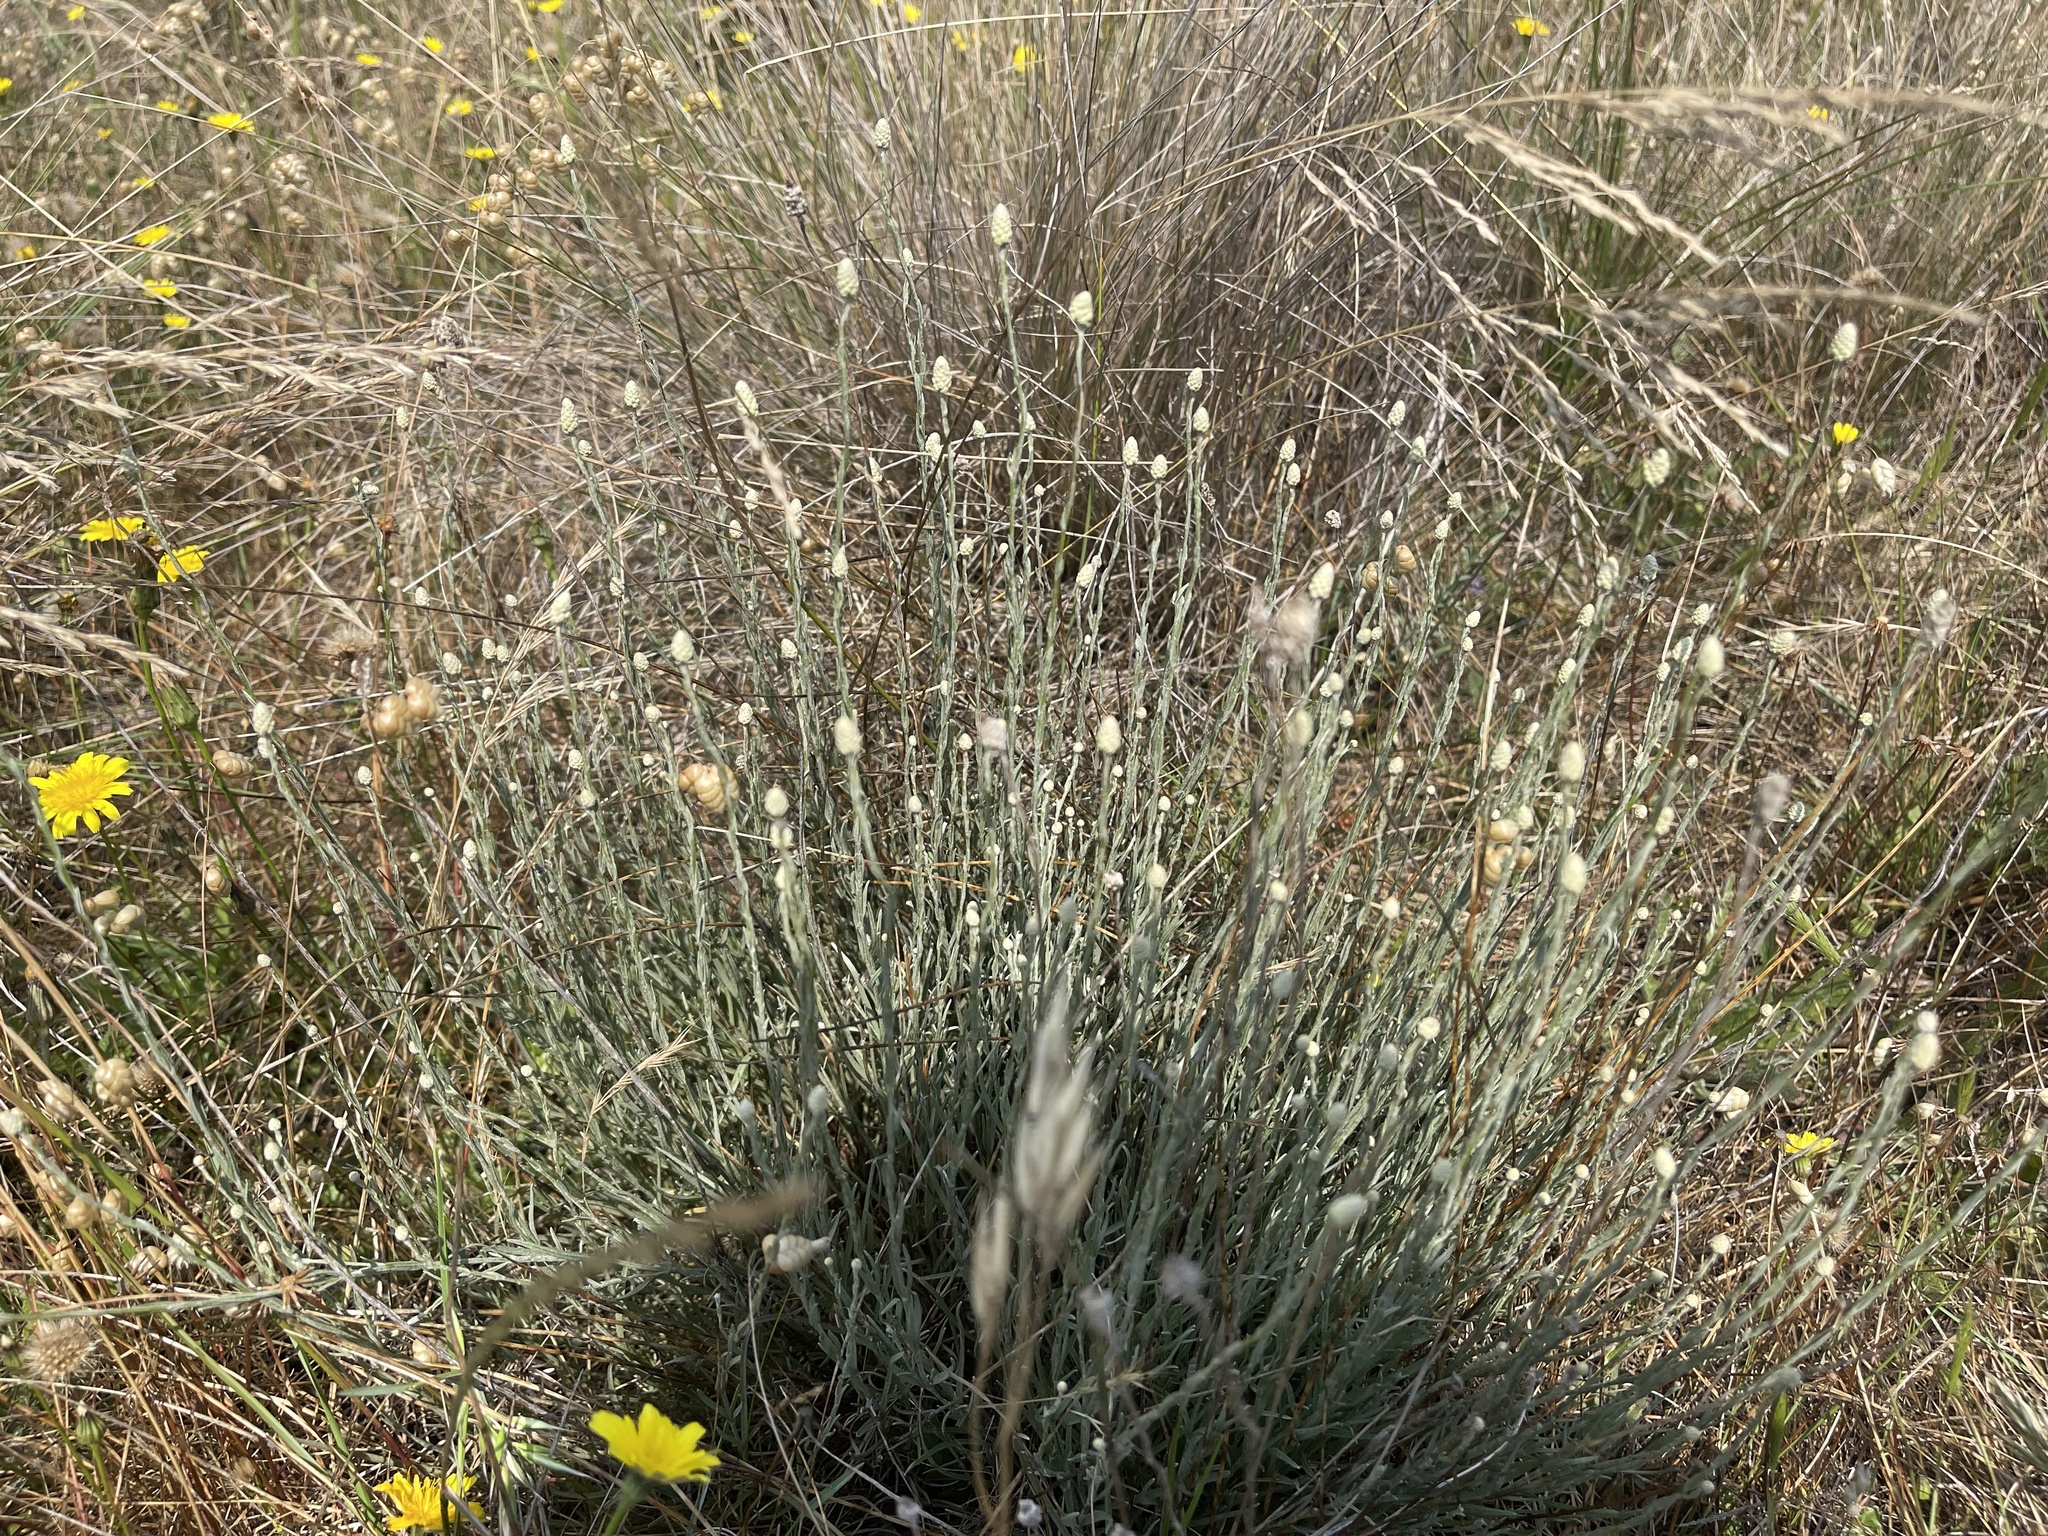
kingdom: Plantae
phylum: Tracheophyta
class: Magnoliopsida
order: Asterales
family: Asteraceae
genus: Calocephalus
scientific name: Calocephalus citreus
